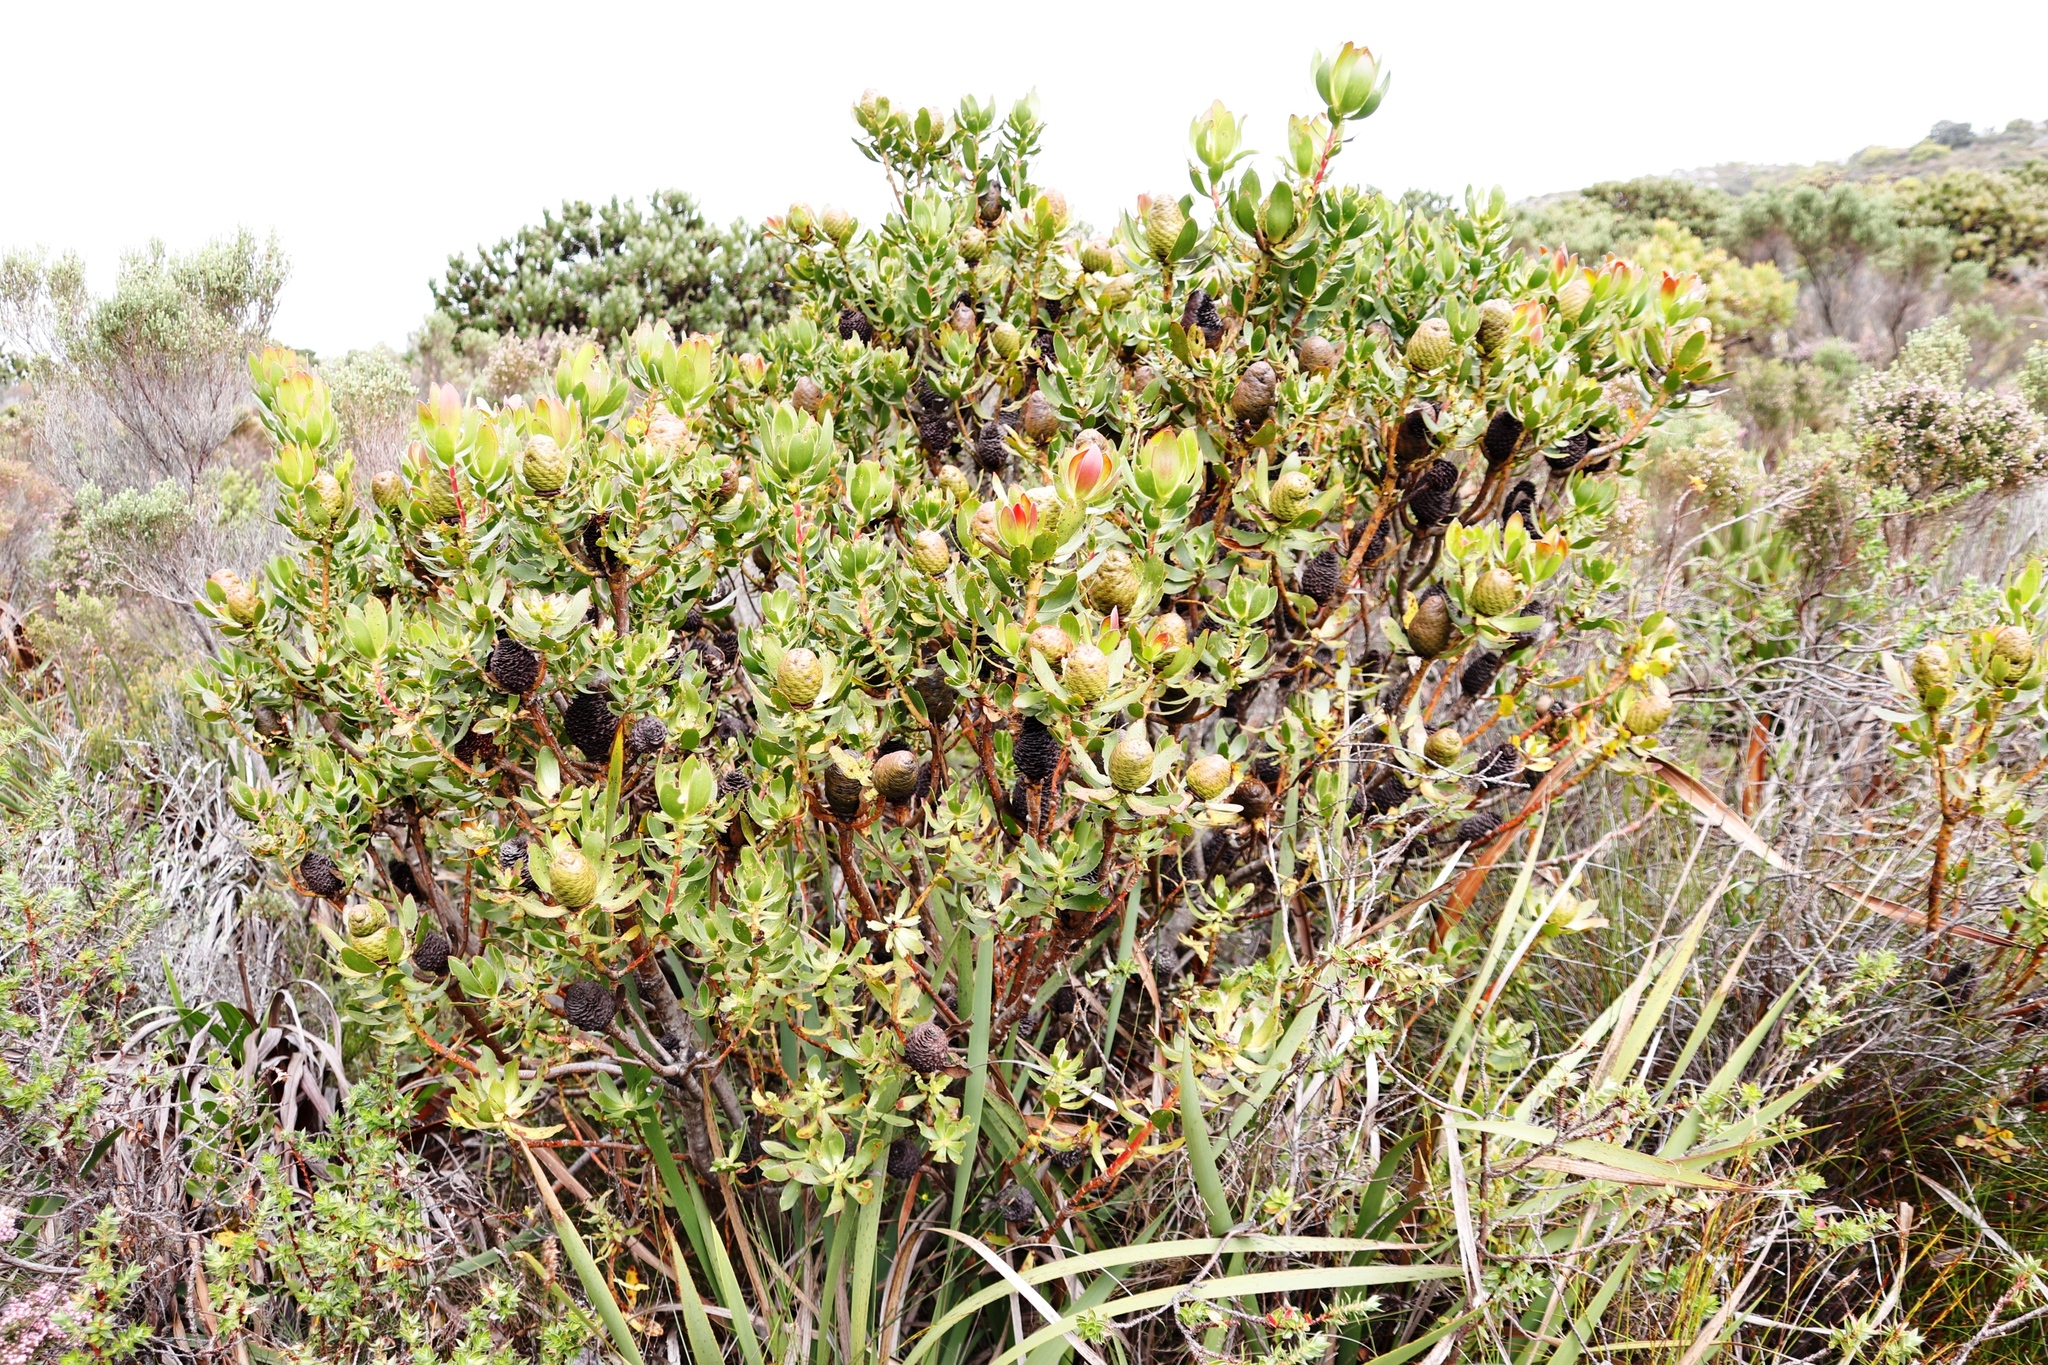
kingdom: Plantae
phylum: Tracheophyta
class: Magnoliopsida
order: Proteales
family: Proteaceae
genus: Leucadendron
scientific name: Leucadendron strobilinum
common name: Mountain rose
